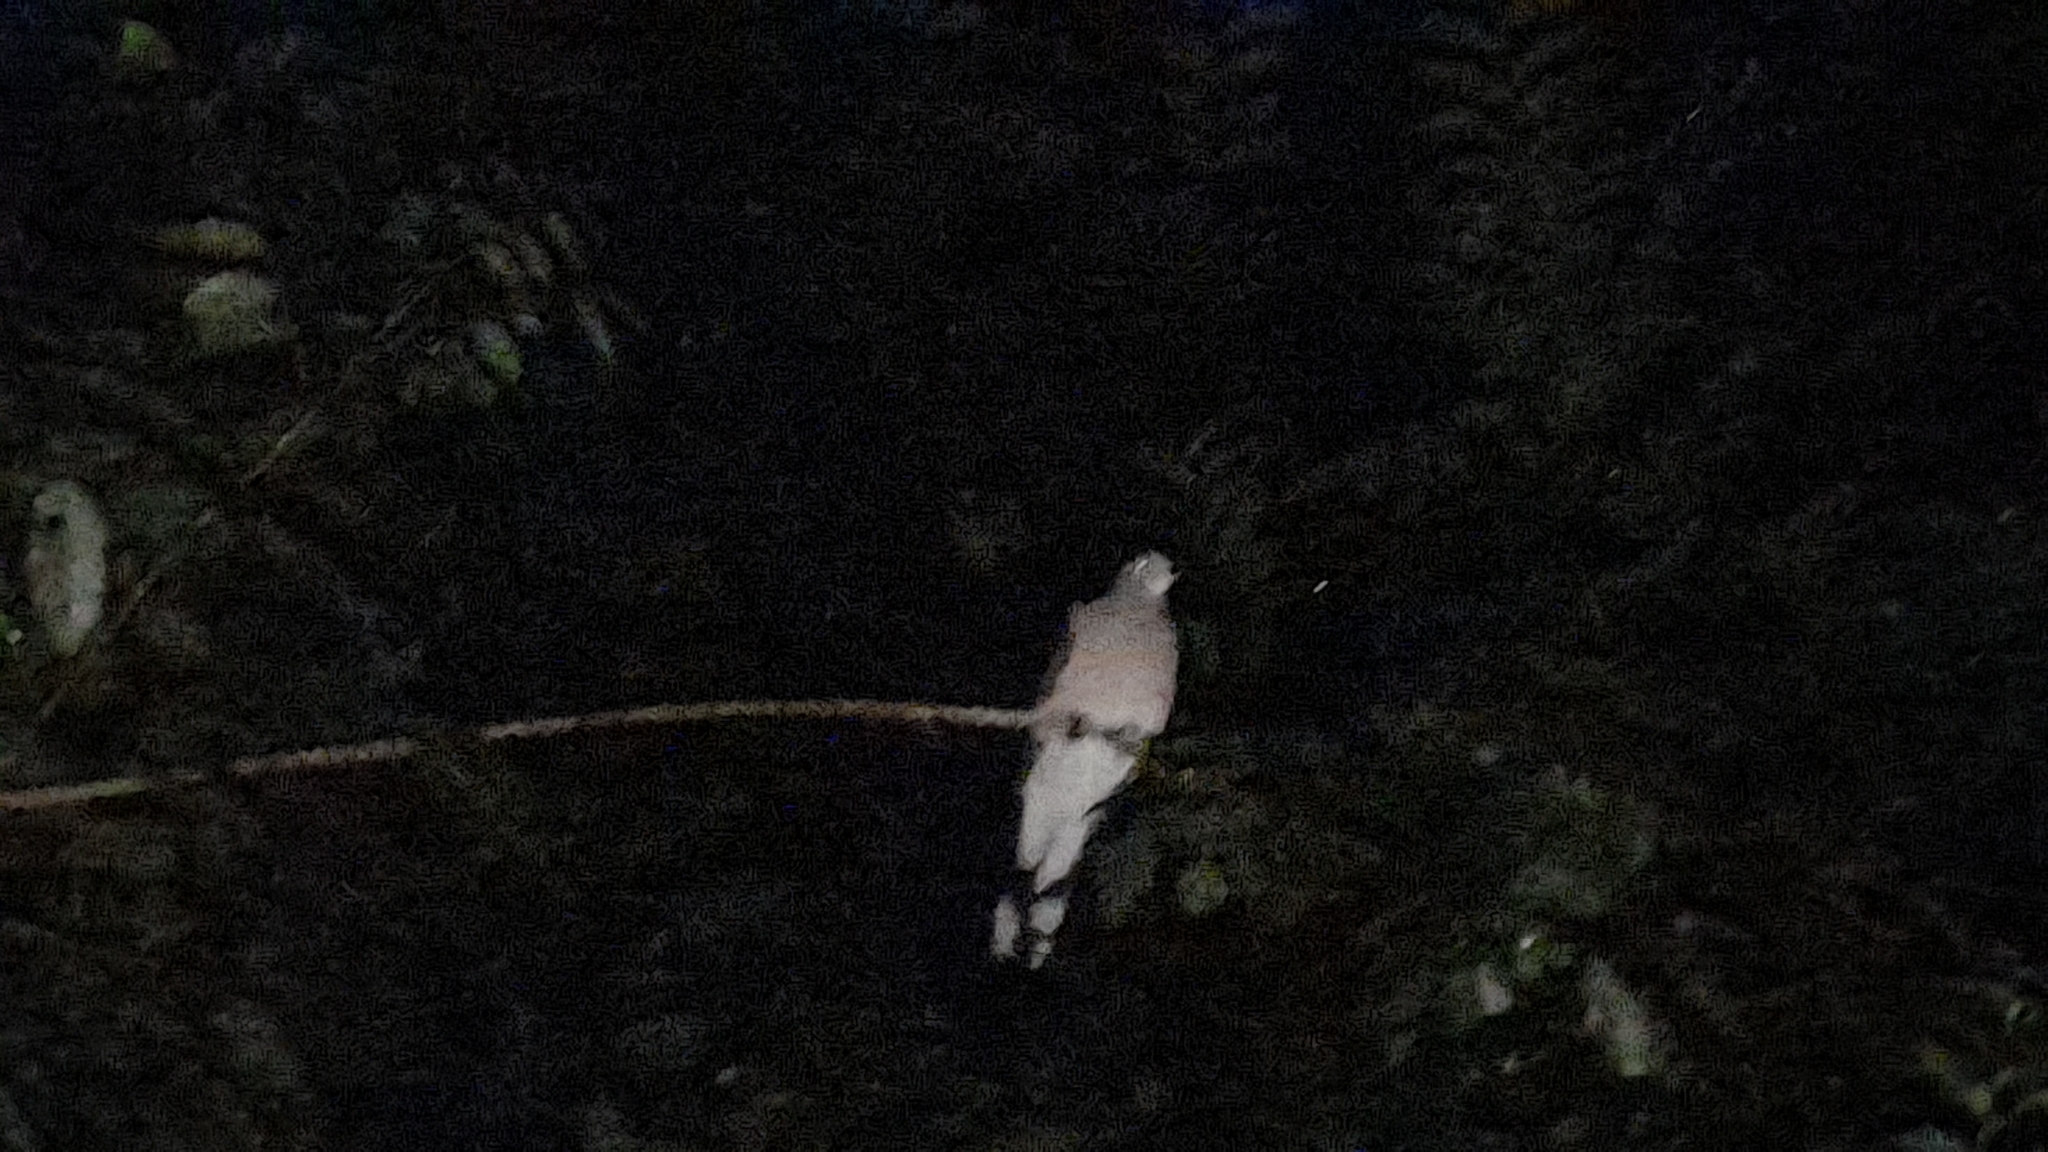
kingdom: Animalia
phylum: Chordata
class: Aves
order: Columbiformes
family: Columbidae
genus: Leptotila
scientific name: Leptotila verreauxi
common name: White-tipped dove
